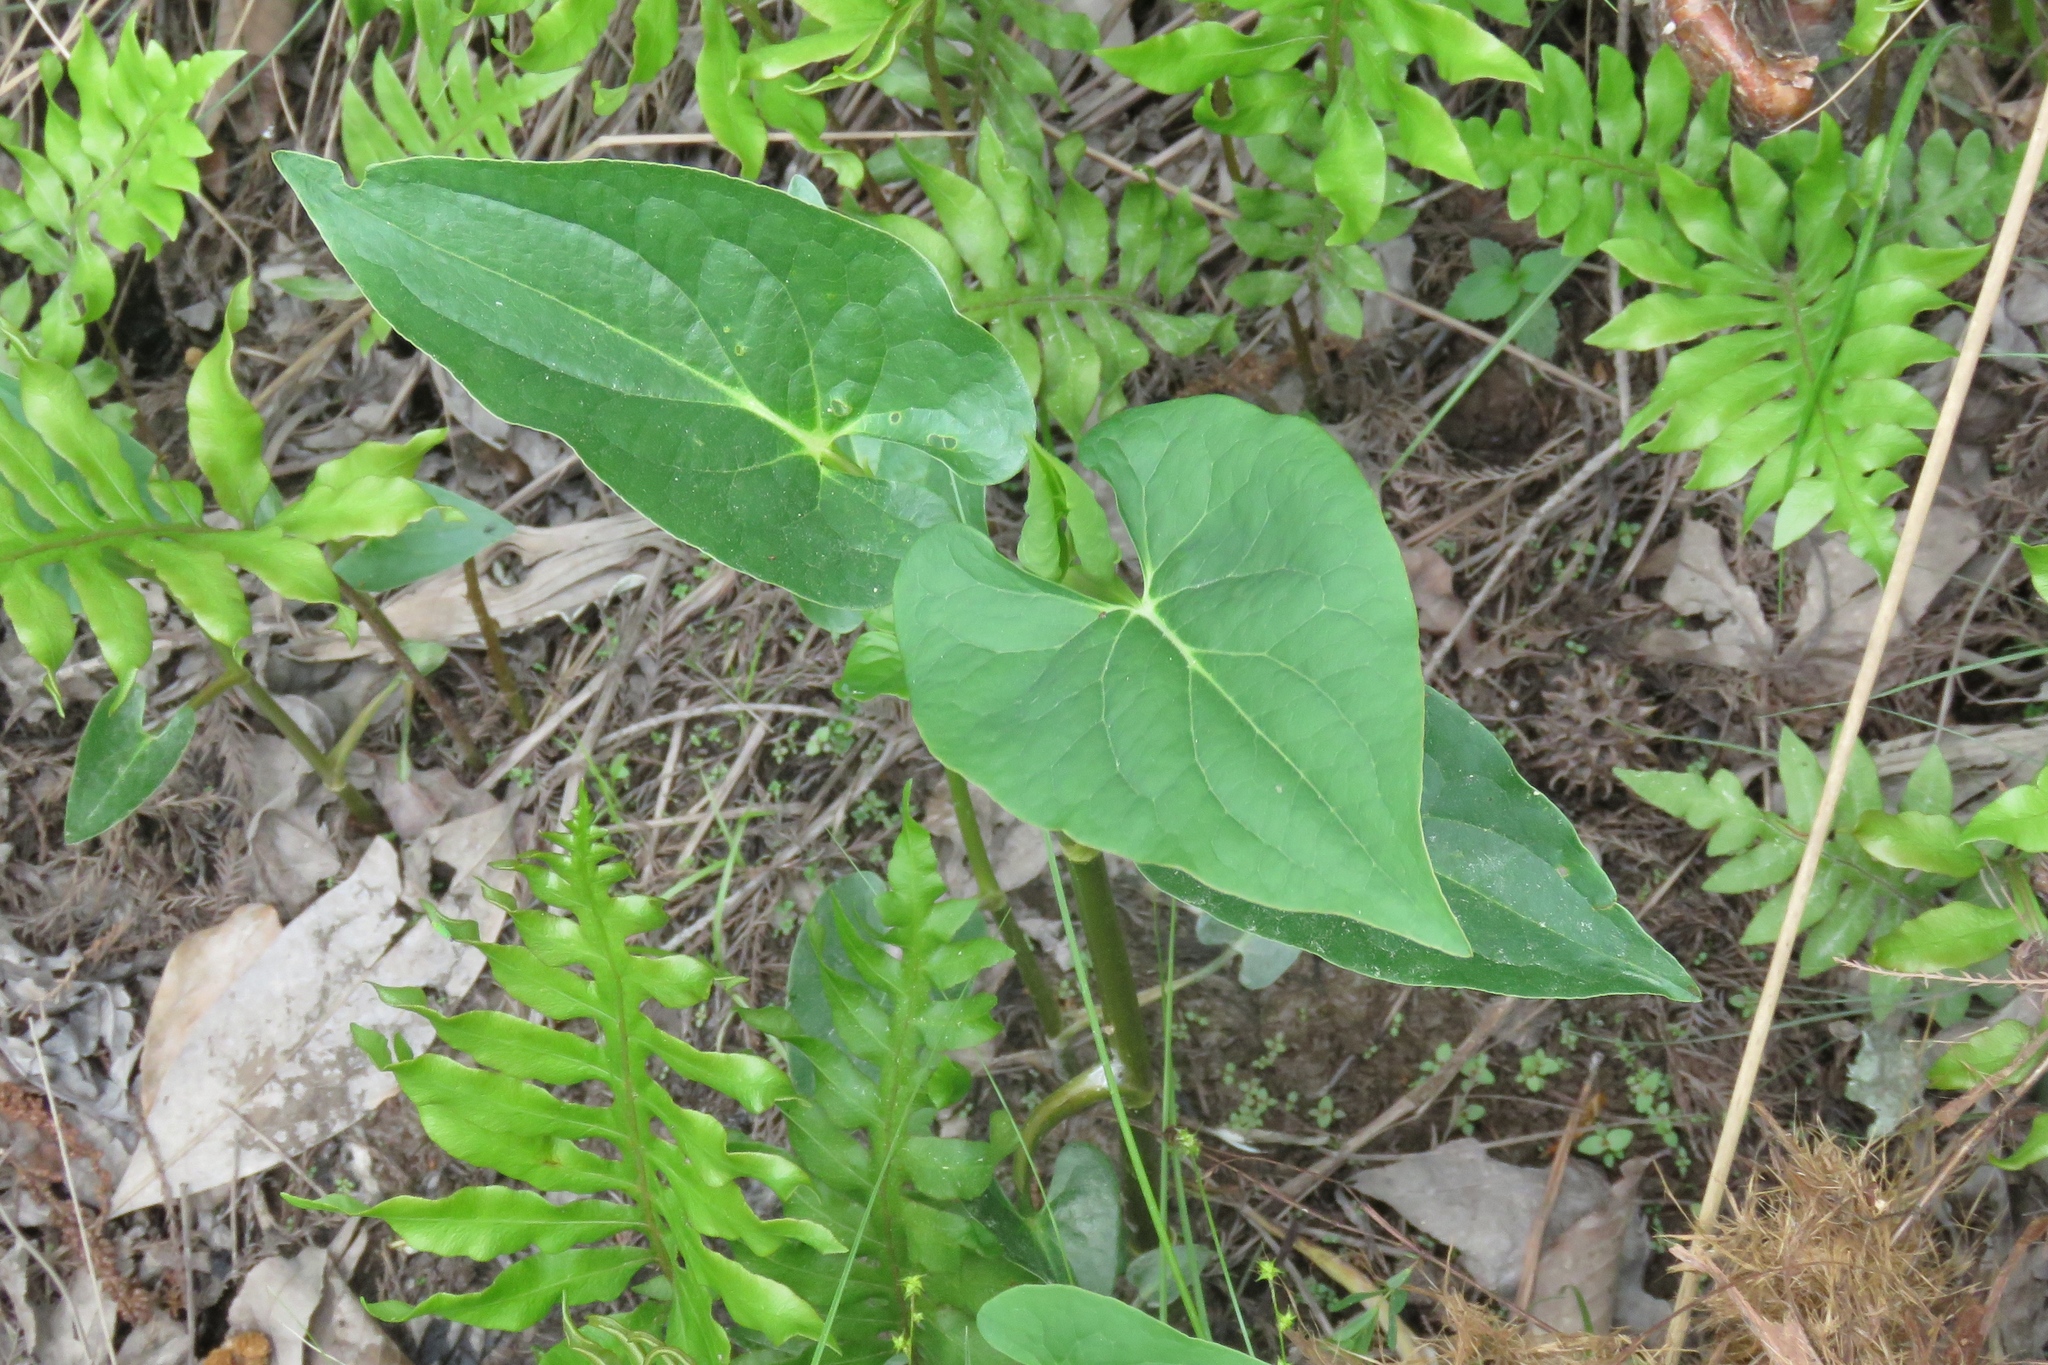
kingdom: Plantae
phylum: Tracheophyta
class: Magnoliopsida
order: Piperales
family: Saururaceae
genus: Saururus
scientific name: Saururus cernuus
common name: Lizard's-tail
